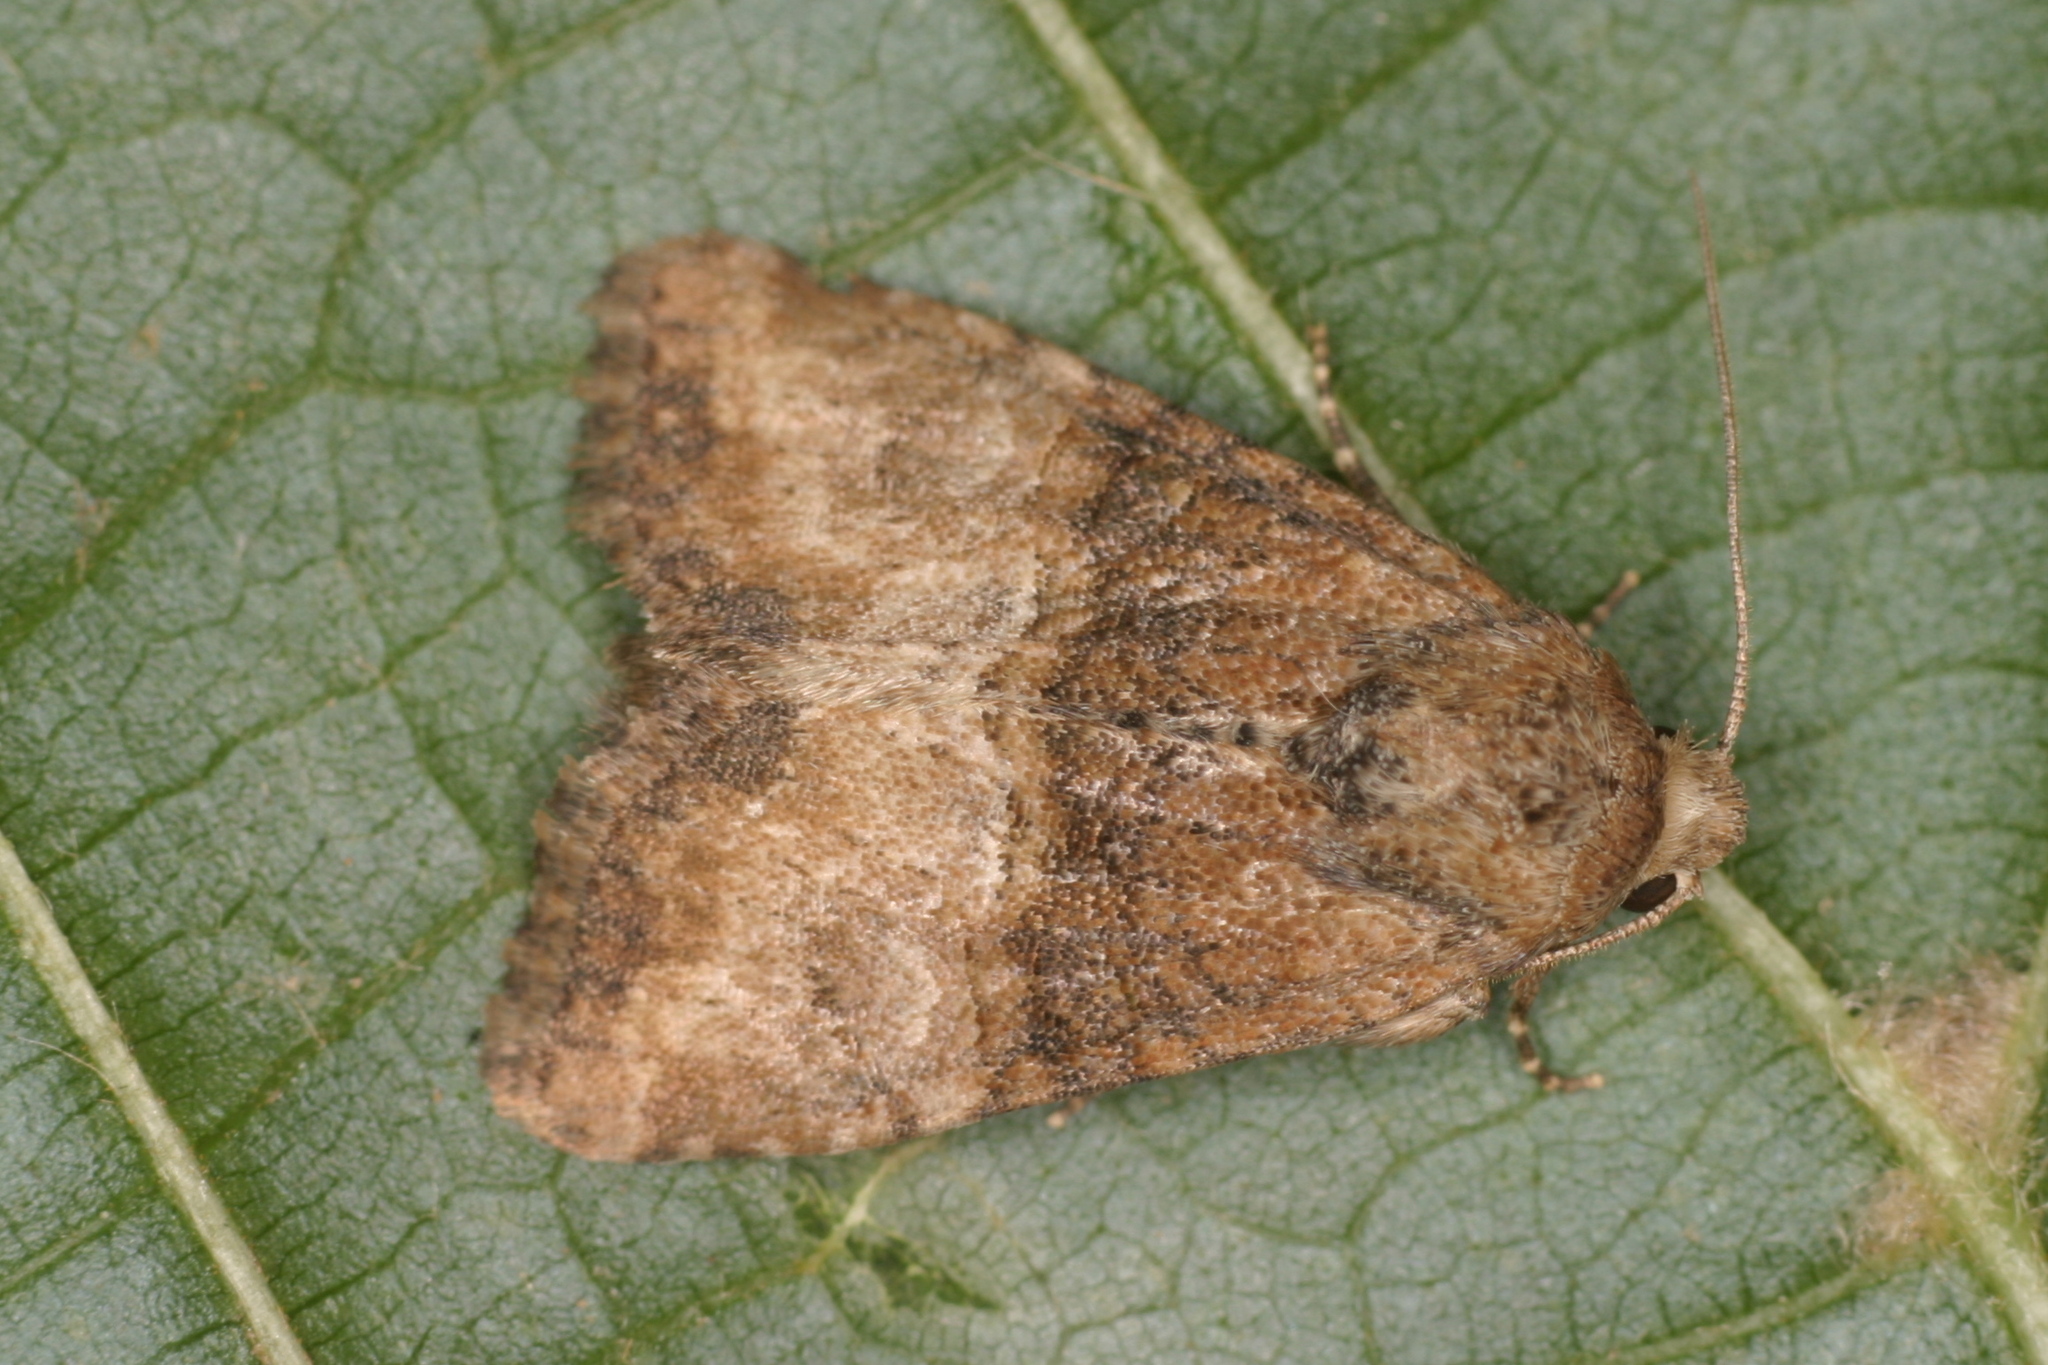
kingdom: Animalia
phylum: Arthropoda
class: Insecta
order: Lepidoptera
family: Noctuidae
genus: Mesoligia
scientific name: Mesoligia furuncula
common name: Cloaked minor
